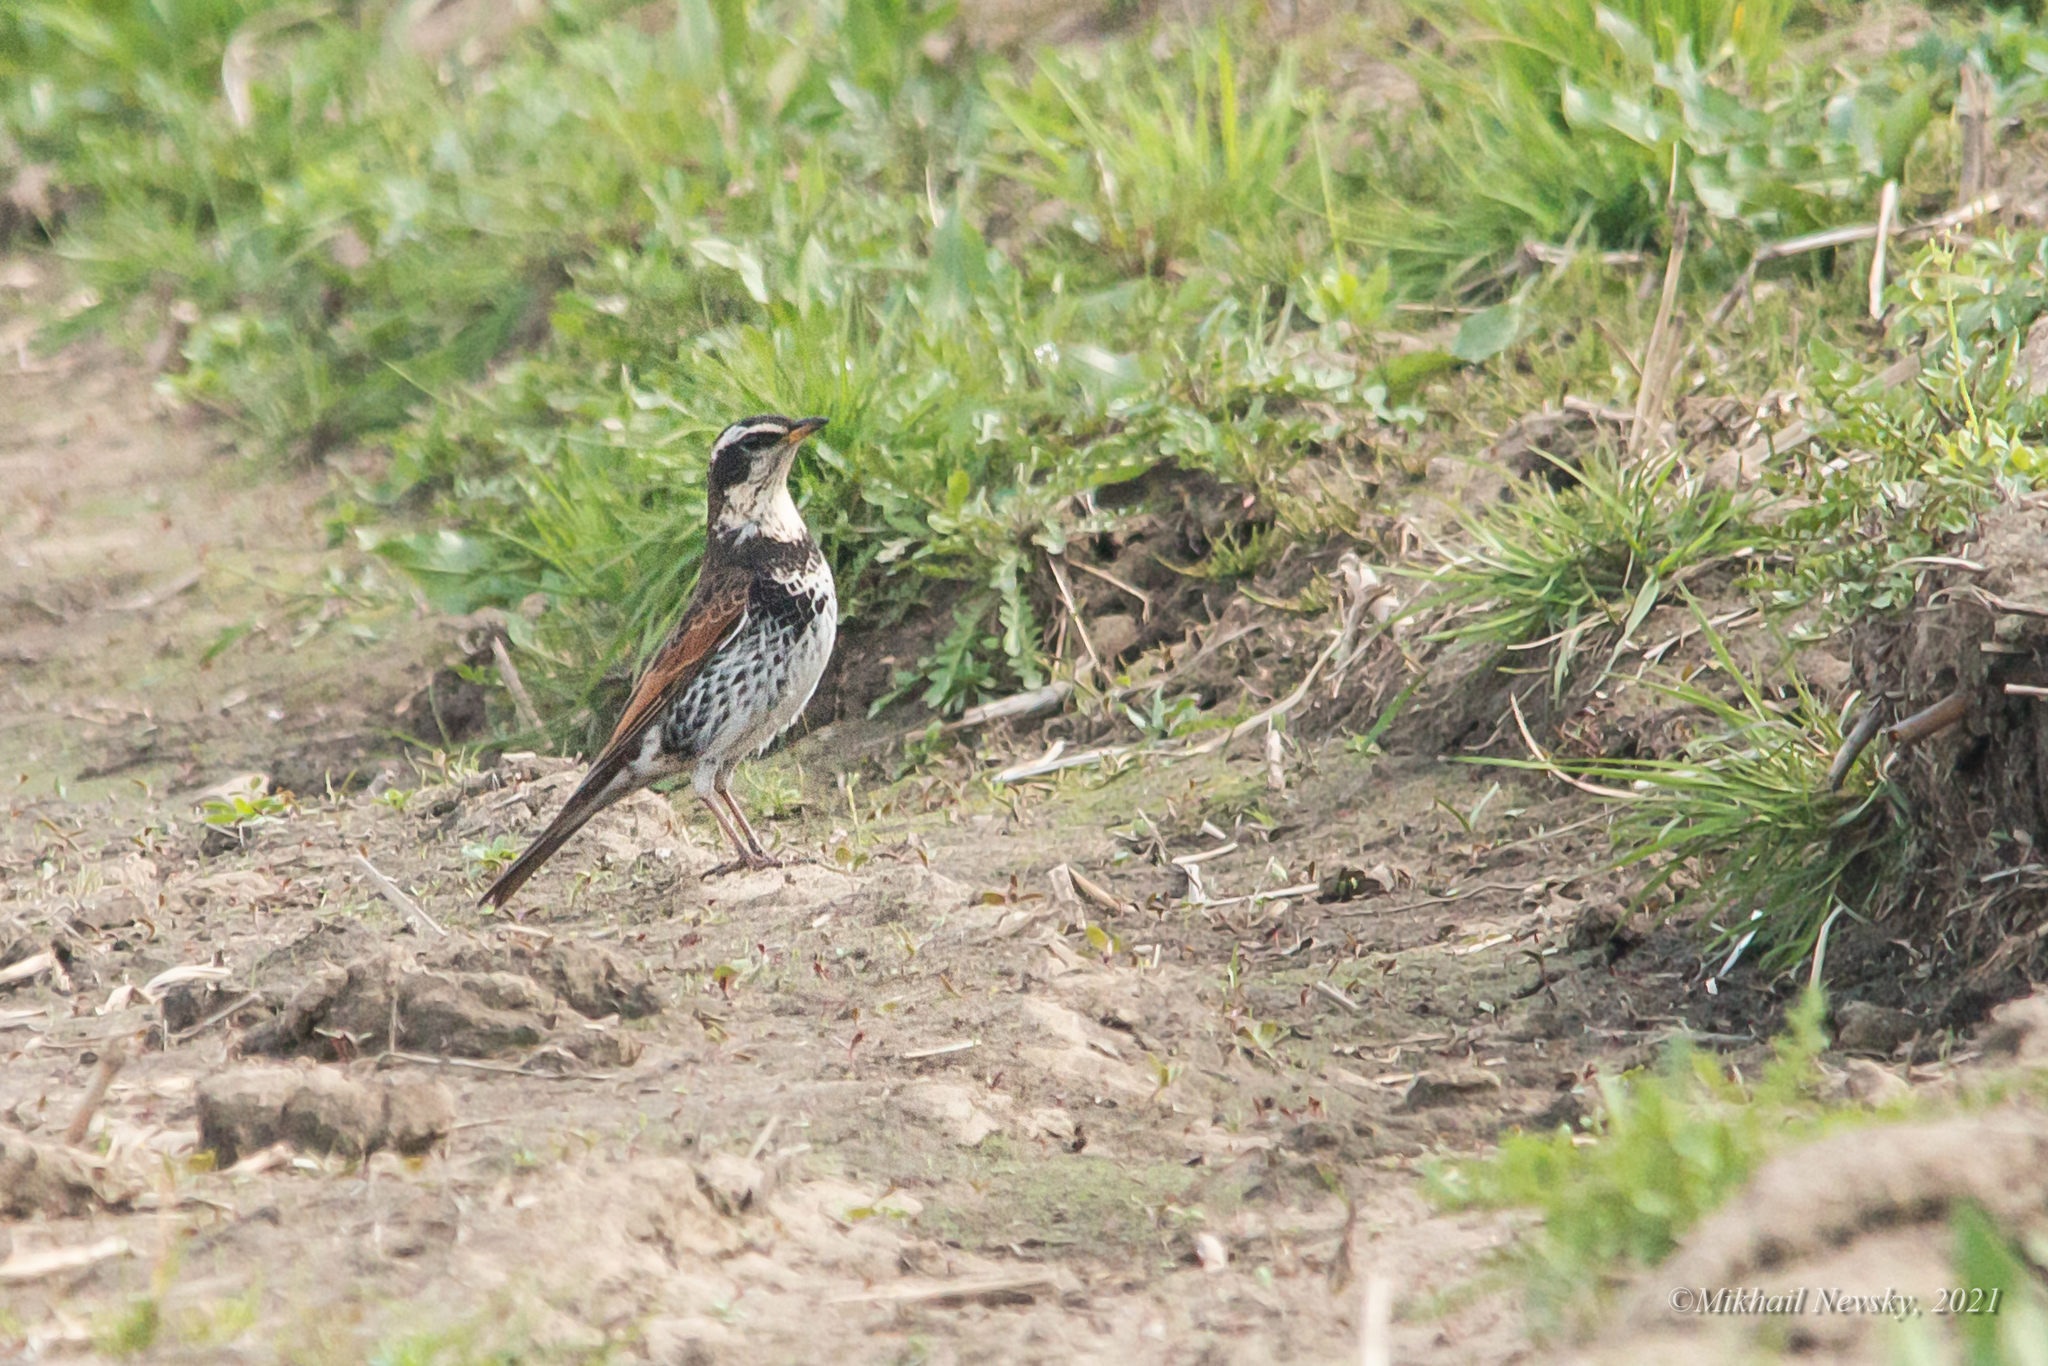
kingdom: Animalia
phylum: Chordata
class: Aves
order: Passeriformes
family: Turdidae
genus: Turdus
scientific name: Turdus eunomus
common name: Dusky thrush
